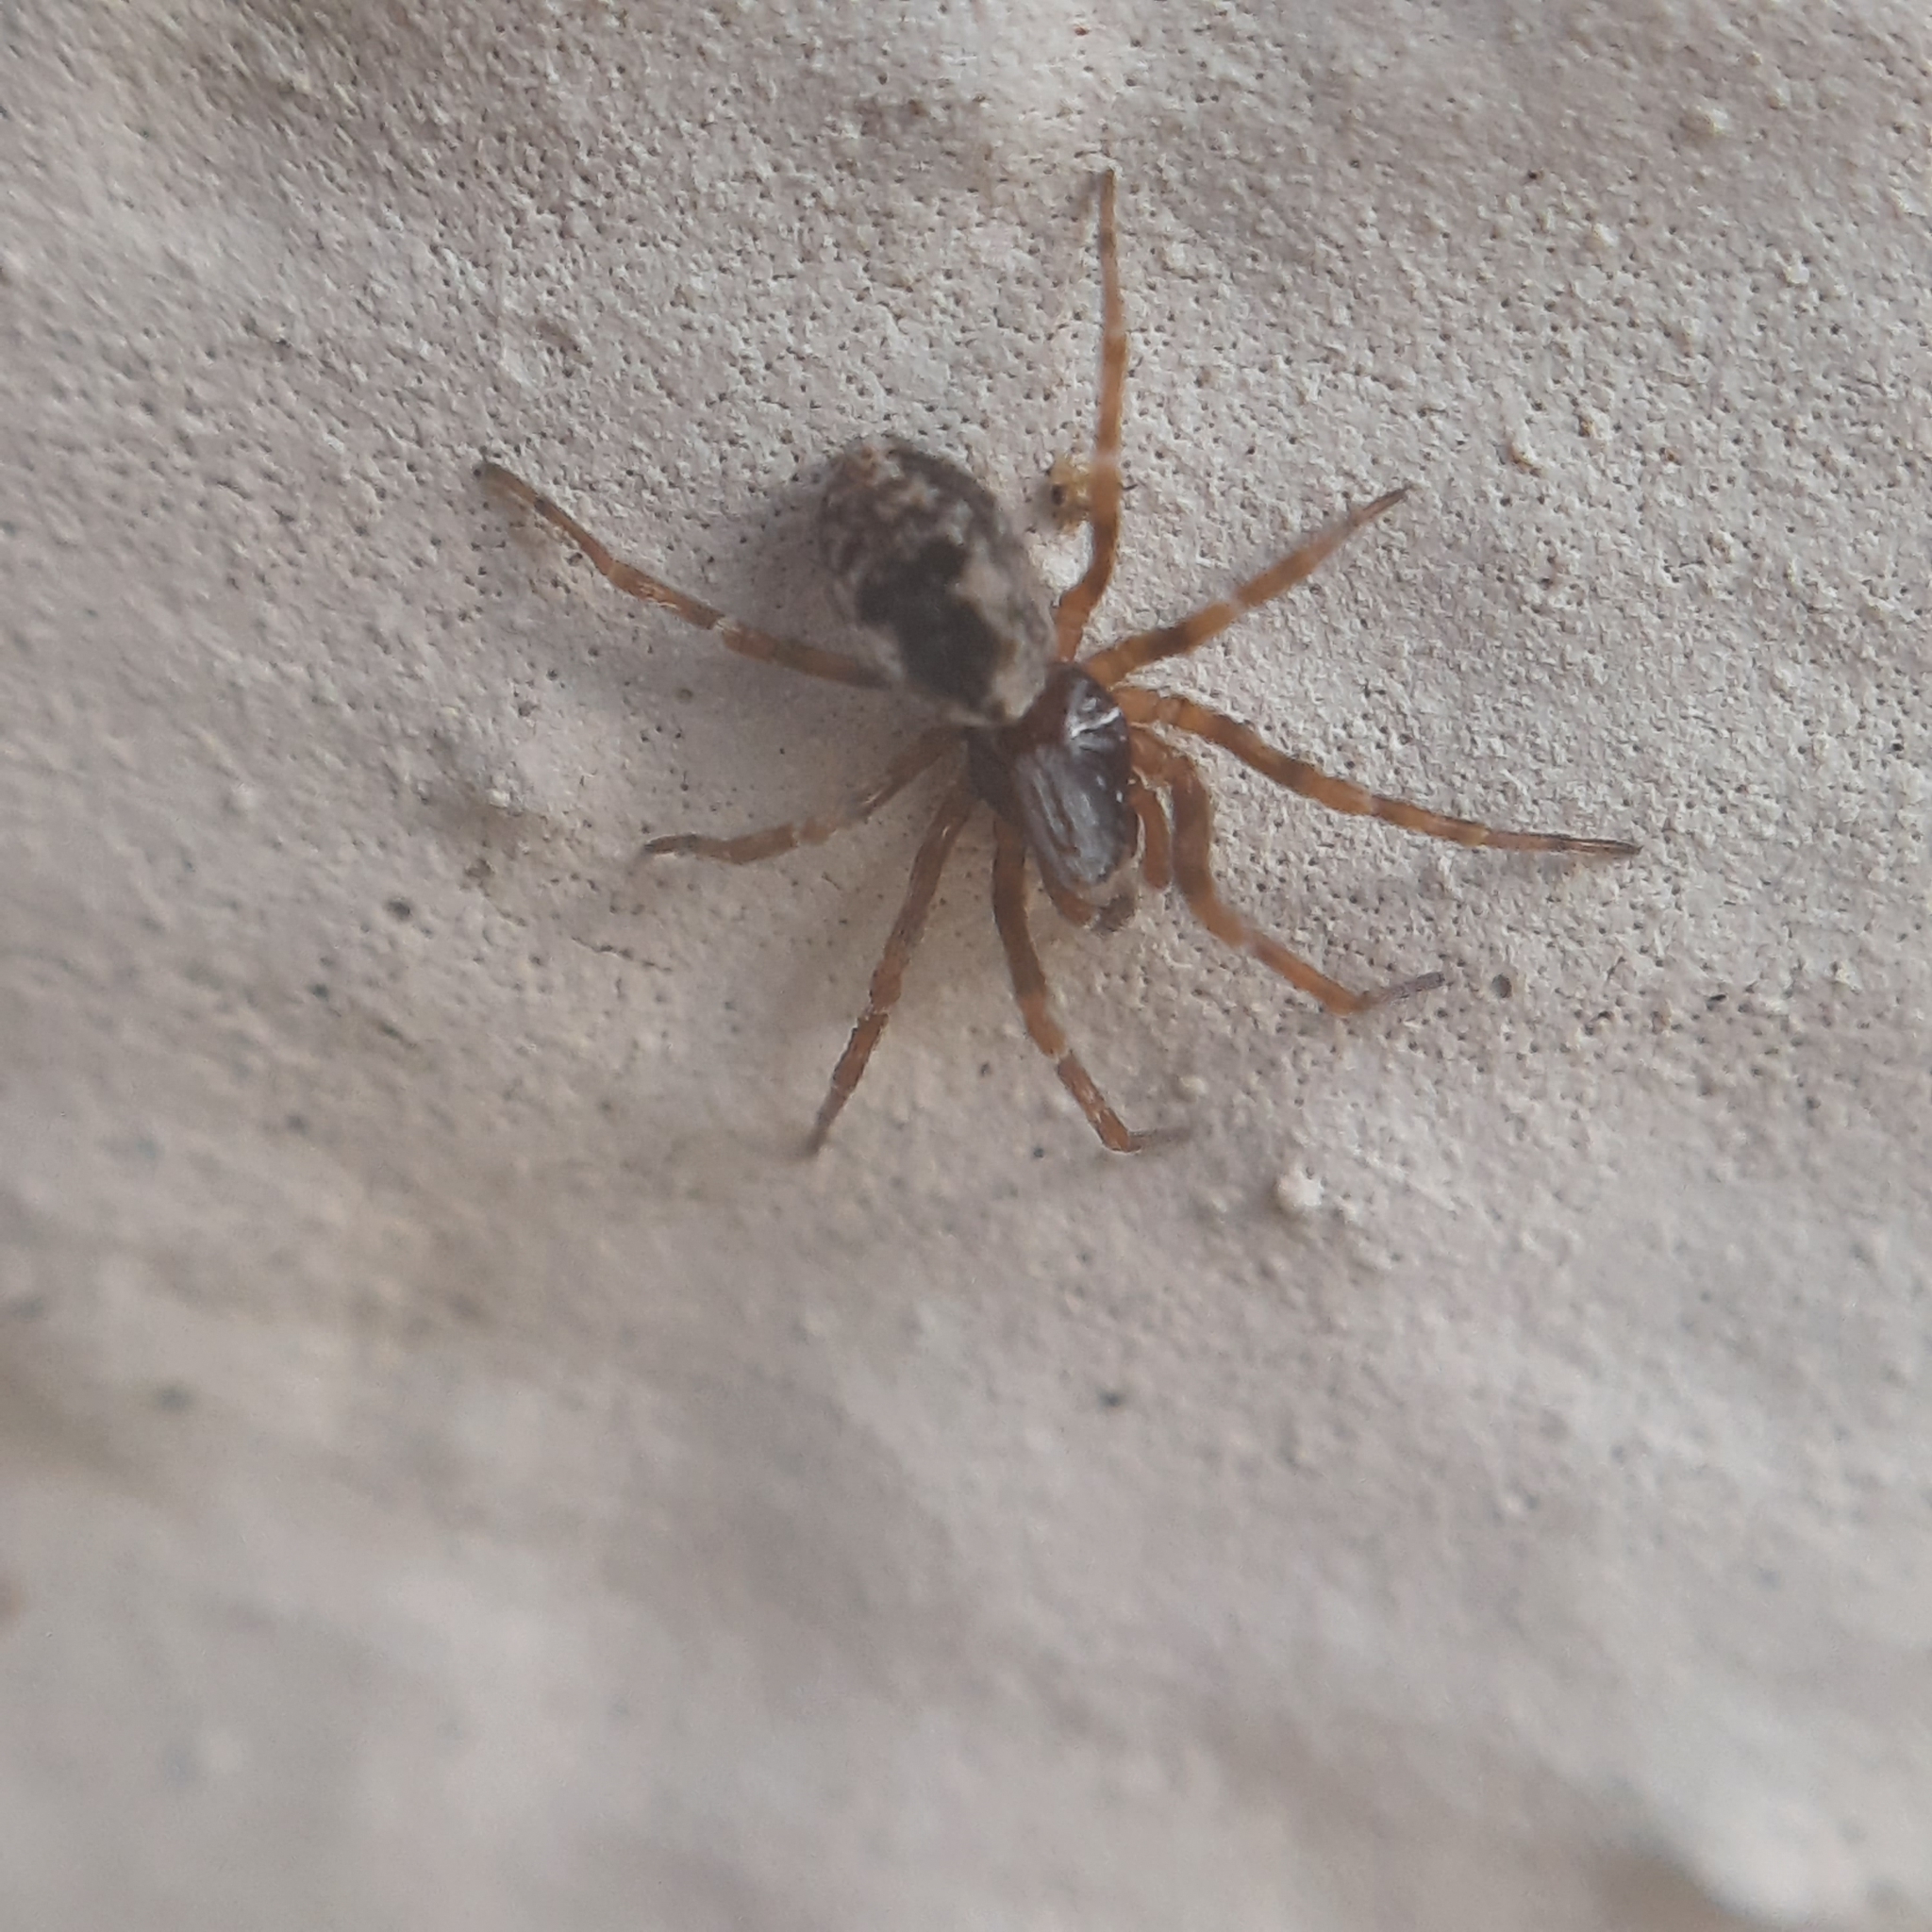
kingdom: Animalia
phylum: Arthropoda
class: Arachnida
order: Araneae
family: Dictynidae
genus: Brigittea
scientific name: Brigittea civica
